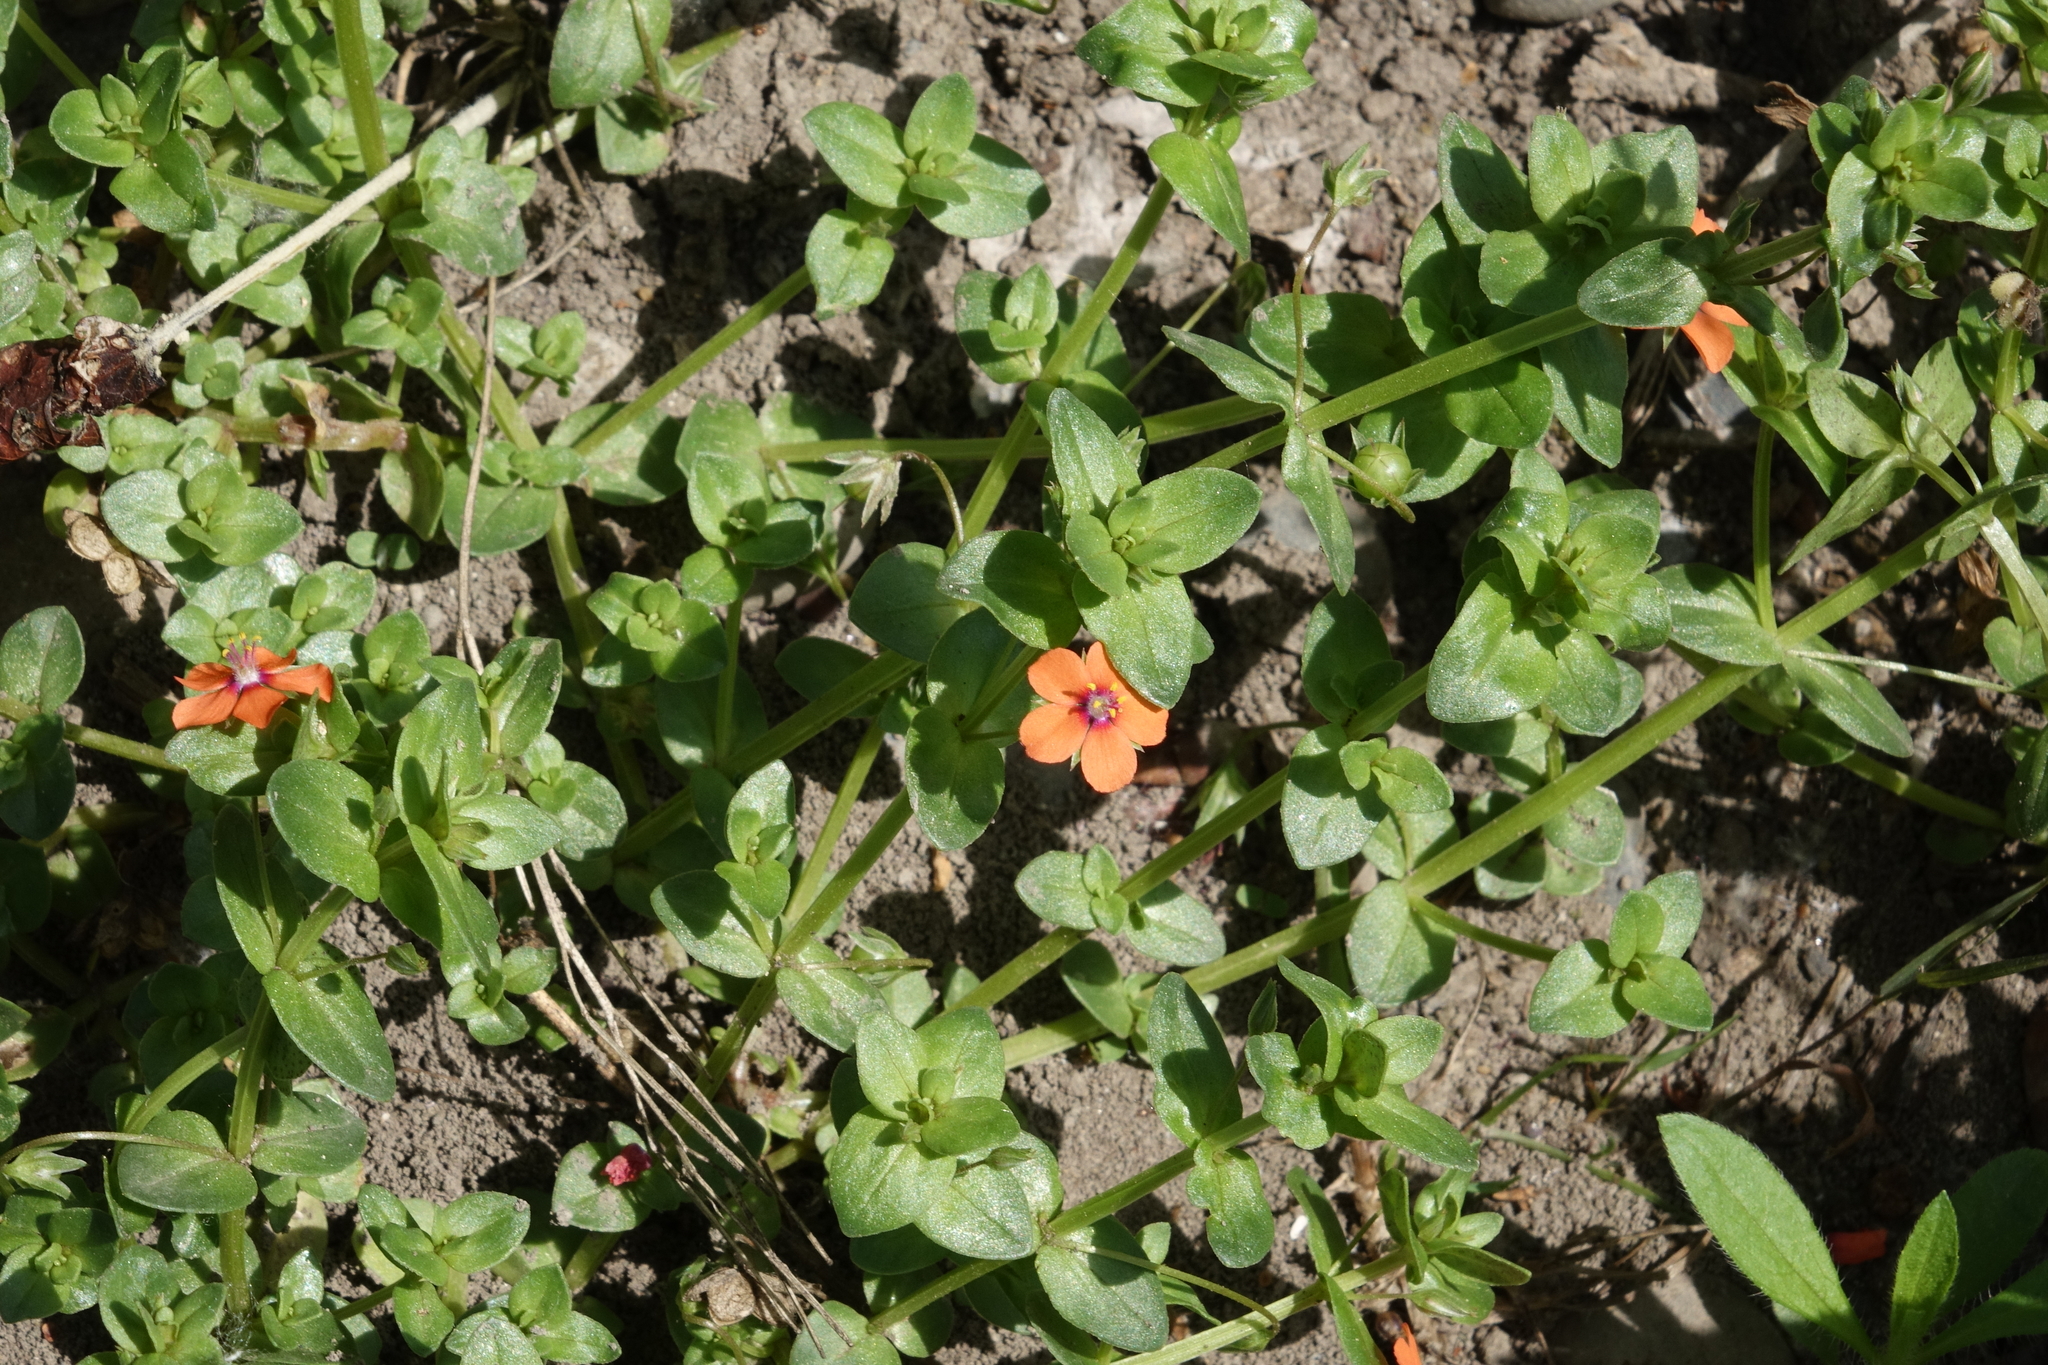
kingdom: Plantae
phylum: Tracheophyta
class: Magnoliopsida
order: Ericales
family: Primulaceae
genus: Lysimachia
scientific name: Lysimachia arvensis
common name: Scarlet pimpernel
